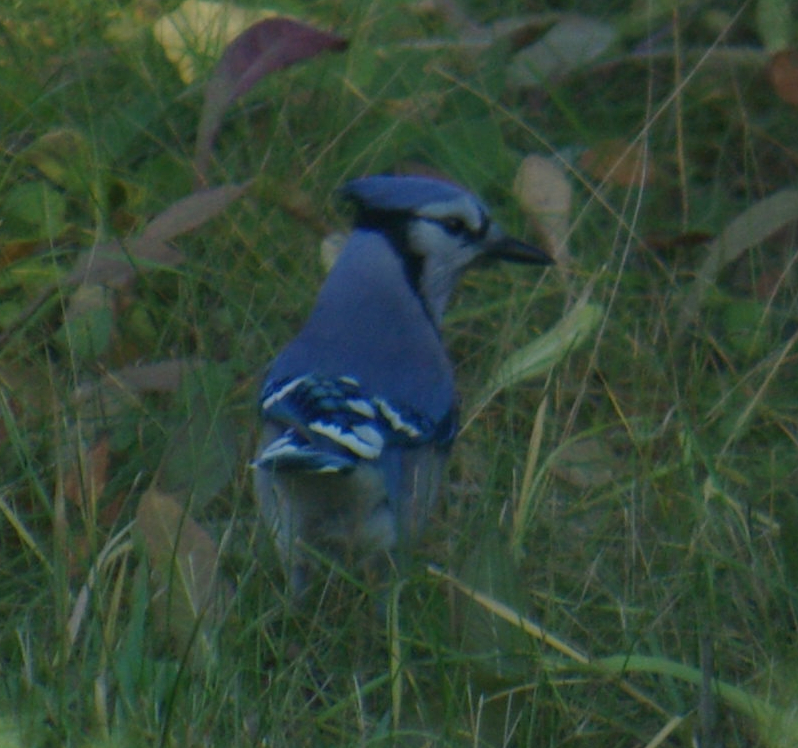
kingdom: Animalia
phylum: Chordata
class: Aves
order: Passeriformes
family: Corvidae
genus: Cyanocitta
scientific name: Cyanocitta cristata
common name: Blue jay
